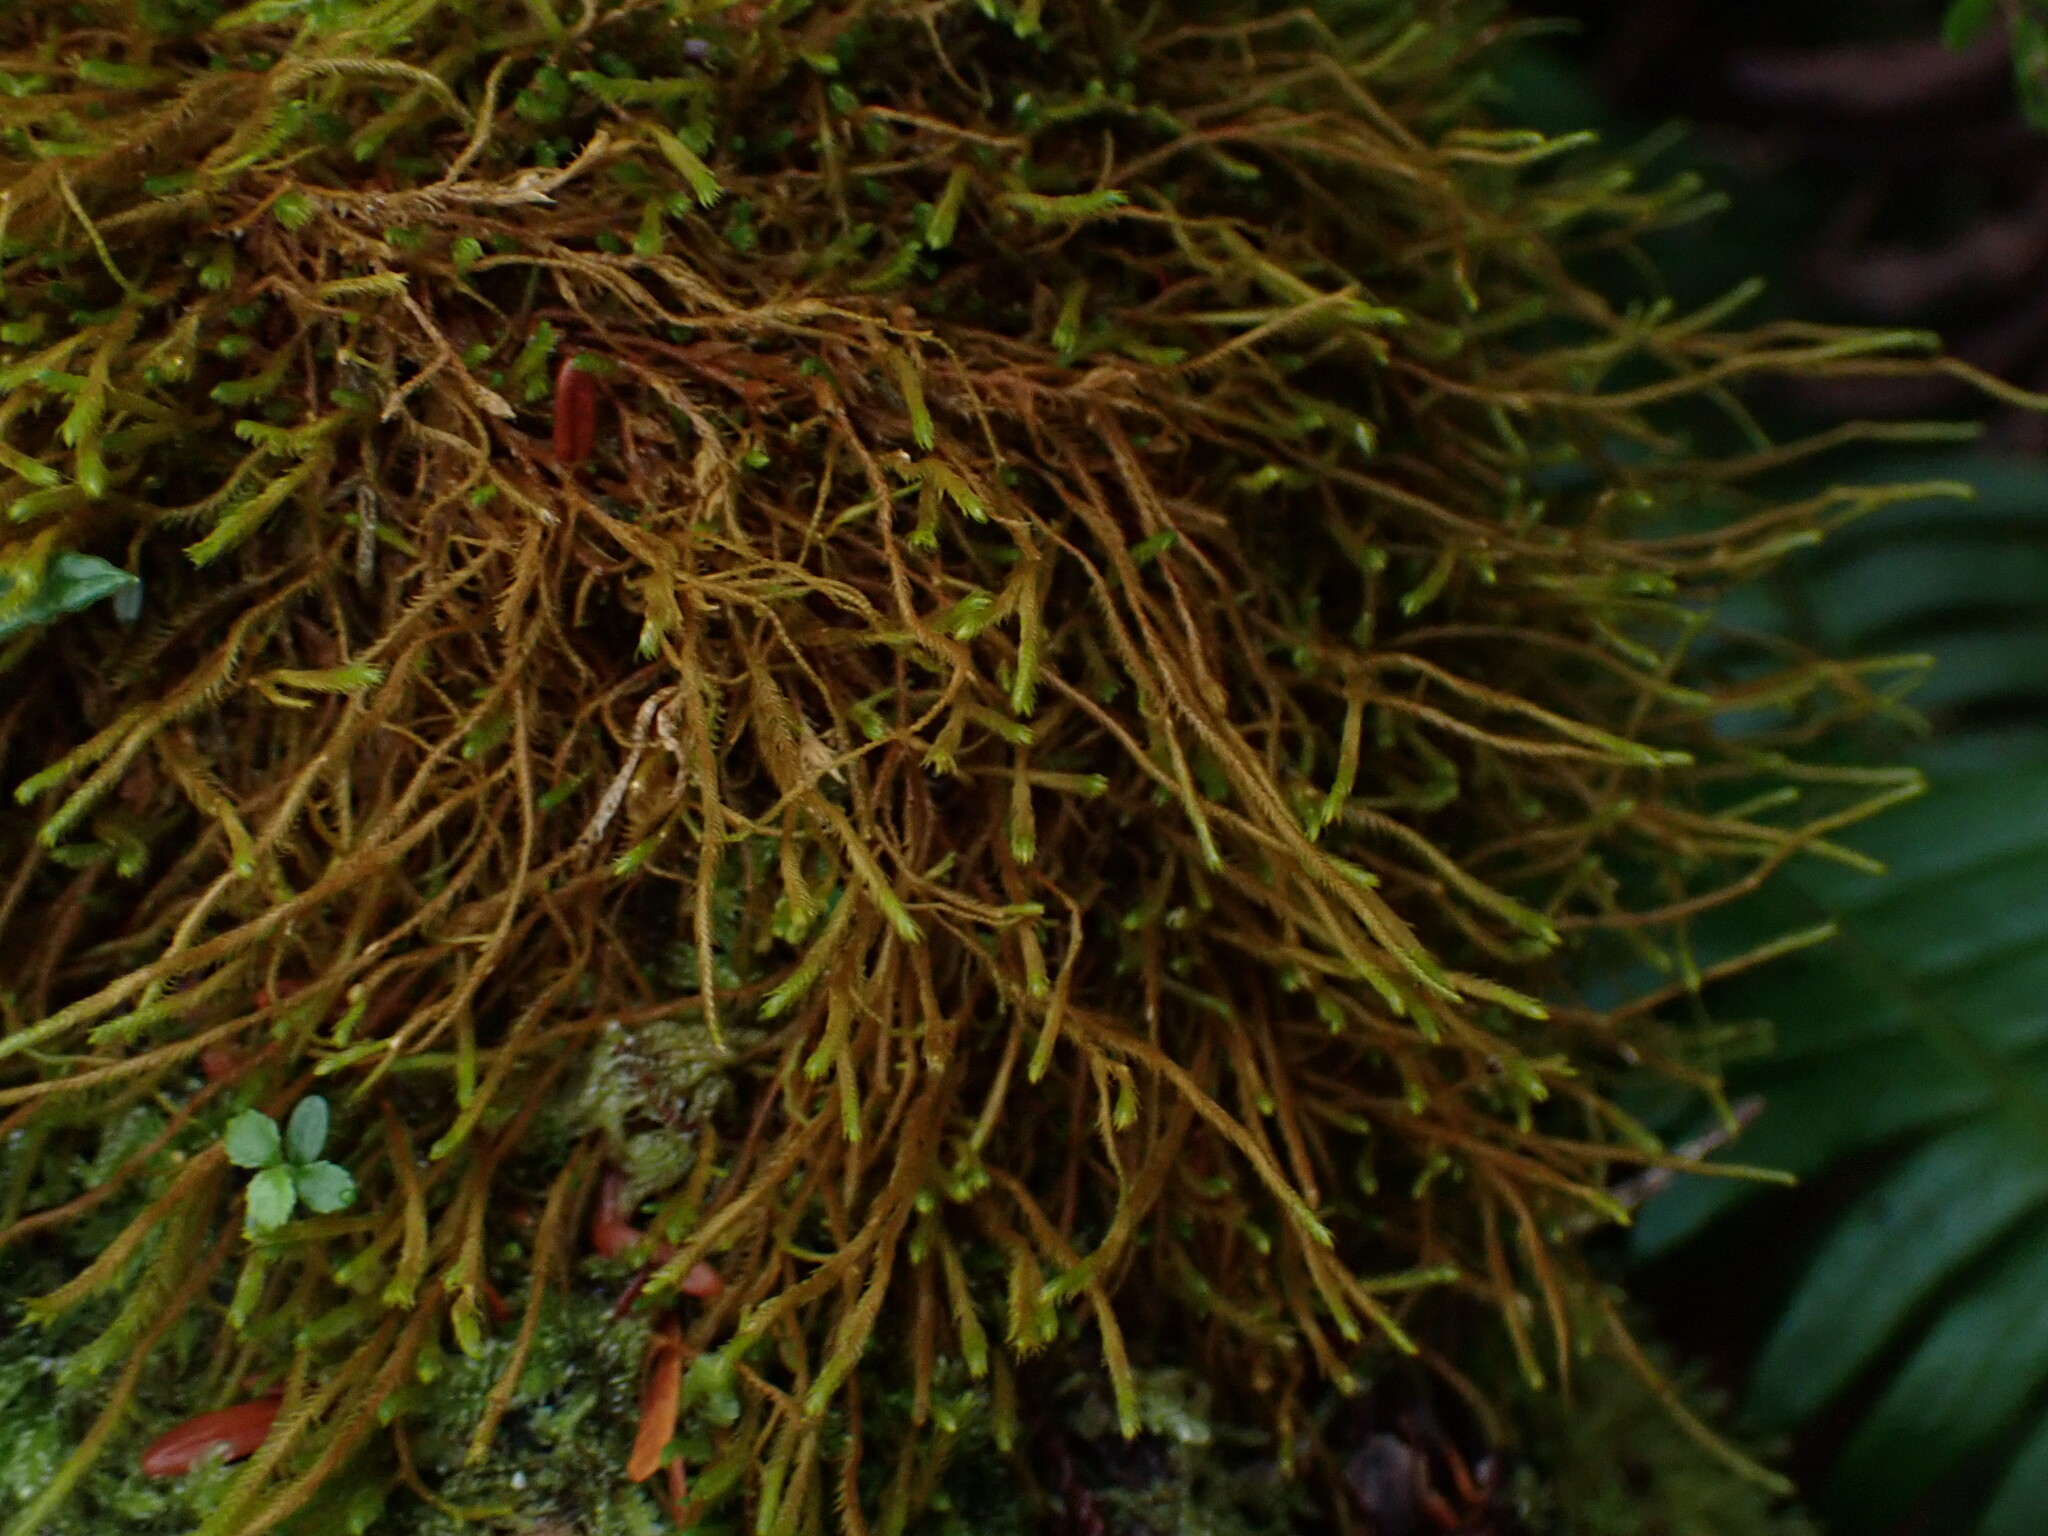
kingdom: Plantae
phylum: Marchantiophyta
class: Jungermanniopsida
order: Jungermanniales
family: Herbertaceae
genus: Herbertus
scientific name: Herbertus aduncus
